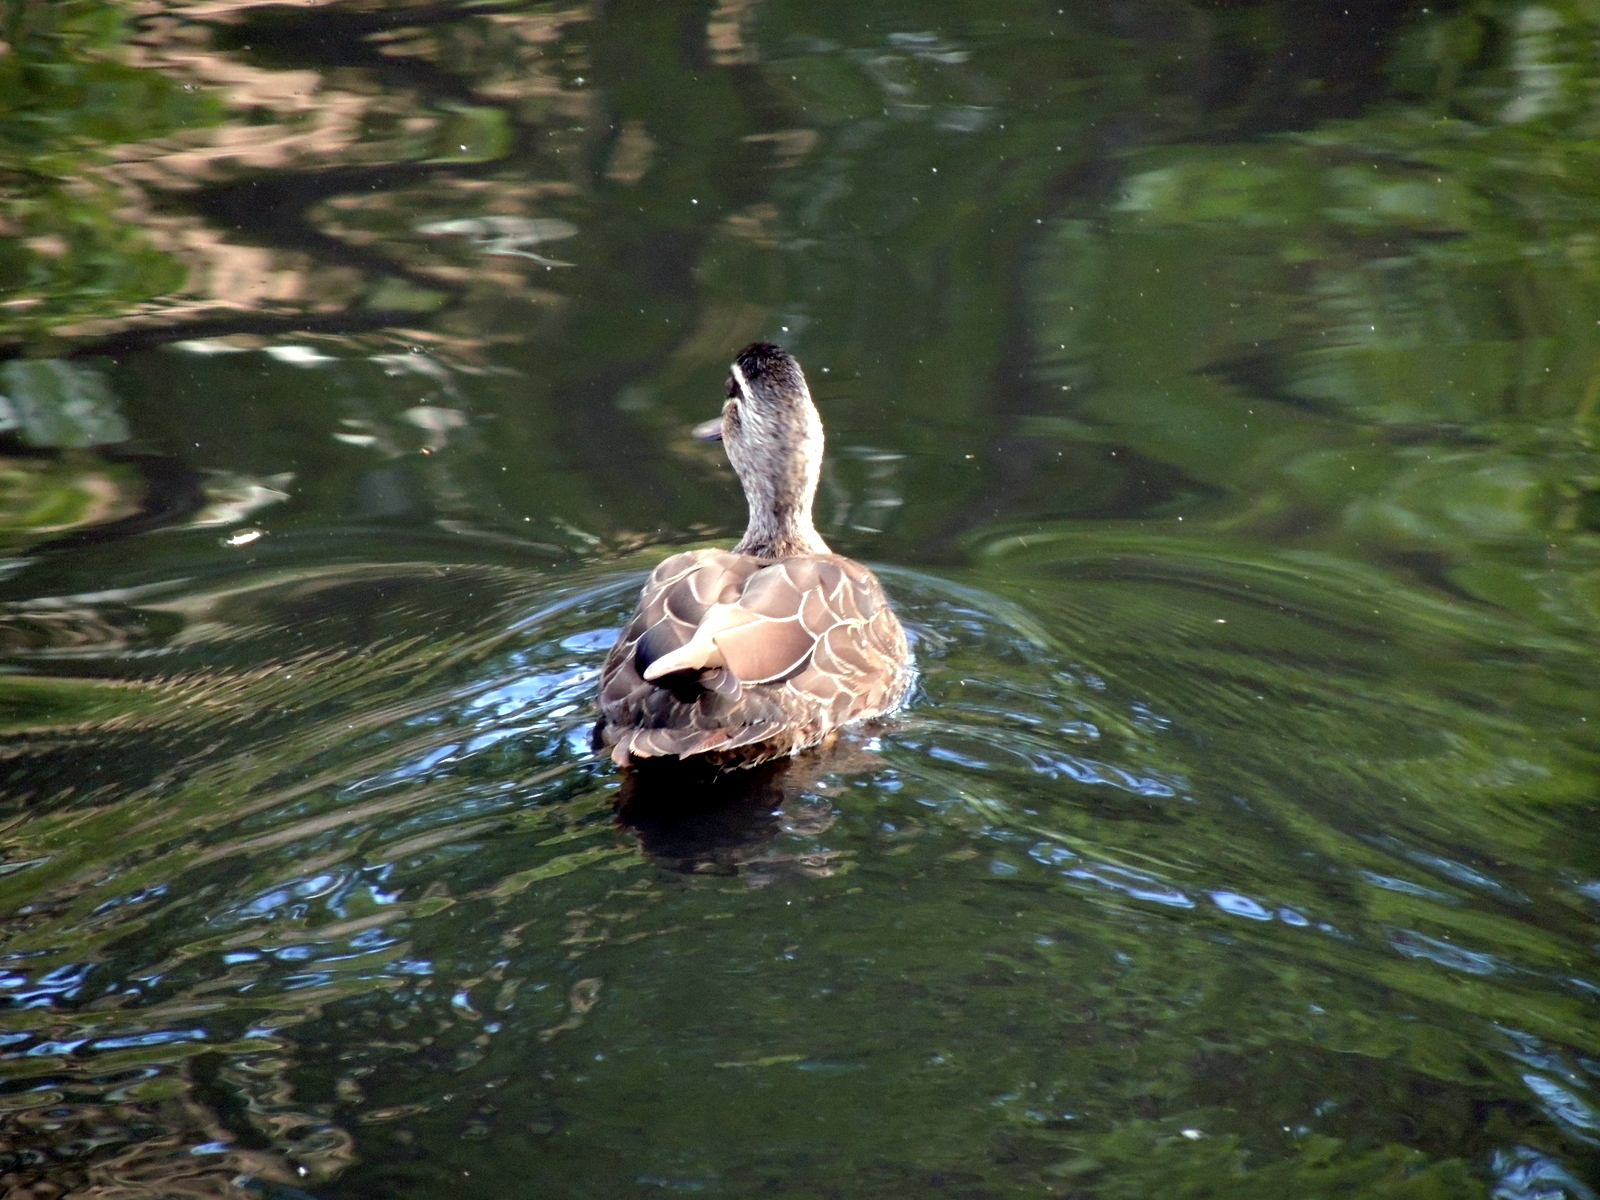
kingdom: Animalia
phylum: Chordata
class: Aves
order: Anseriformes
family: Anatidae
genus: Anas
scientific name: Anas superciliosa
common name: Pacific black duck
